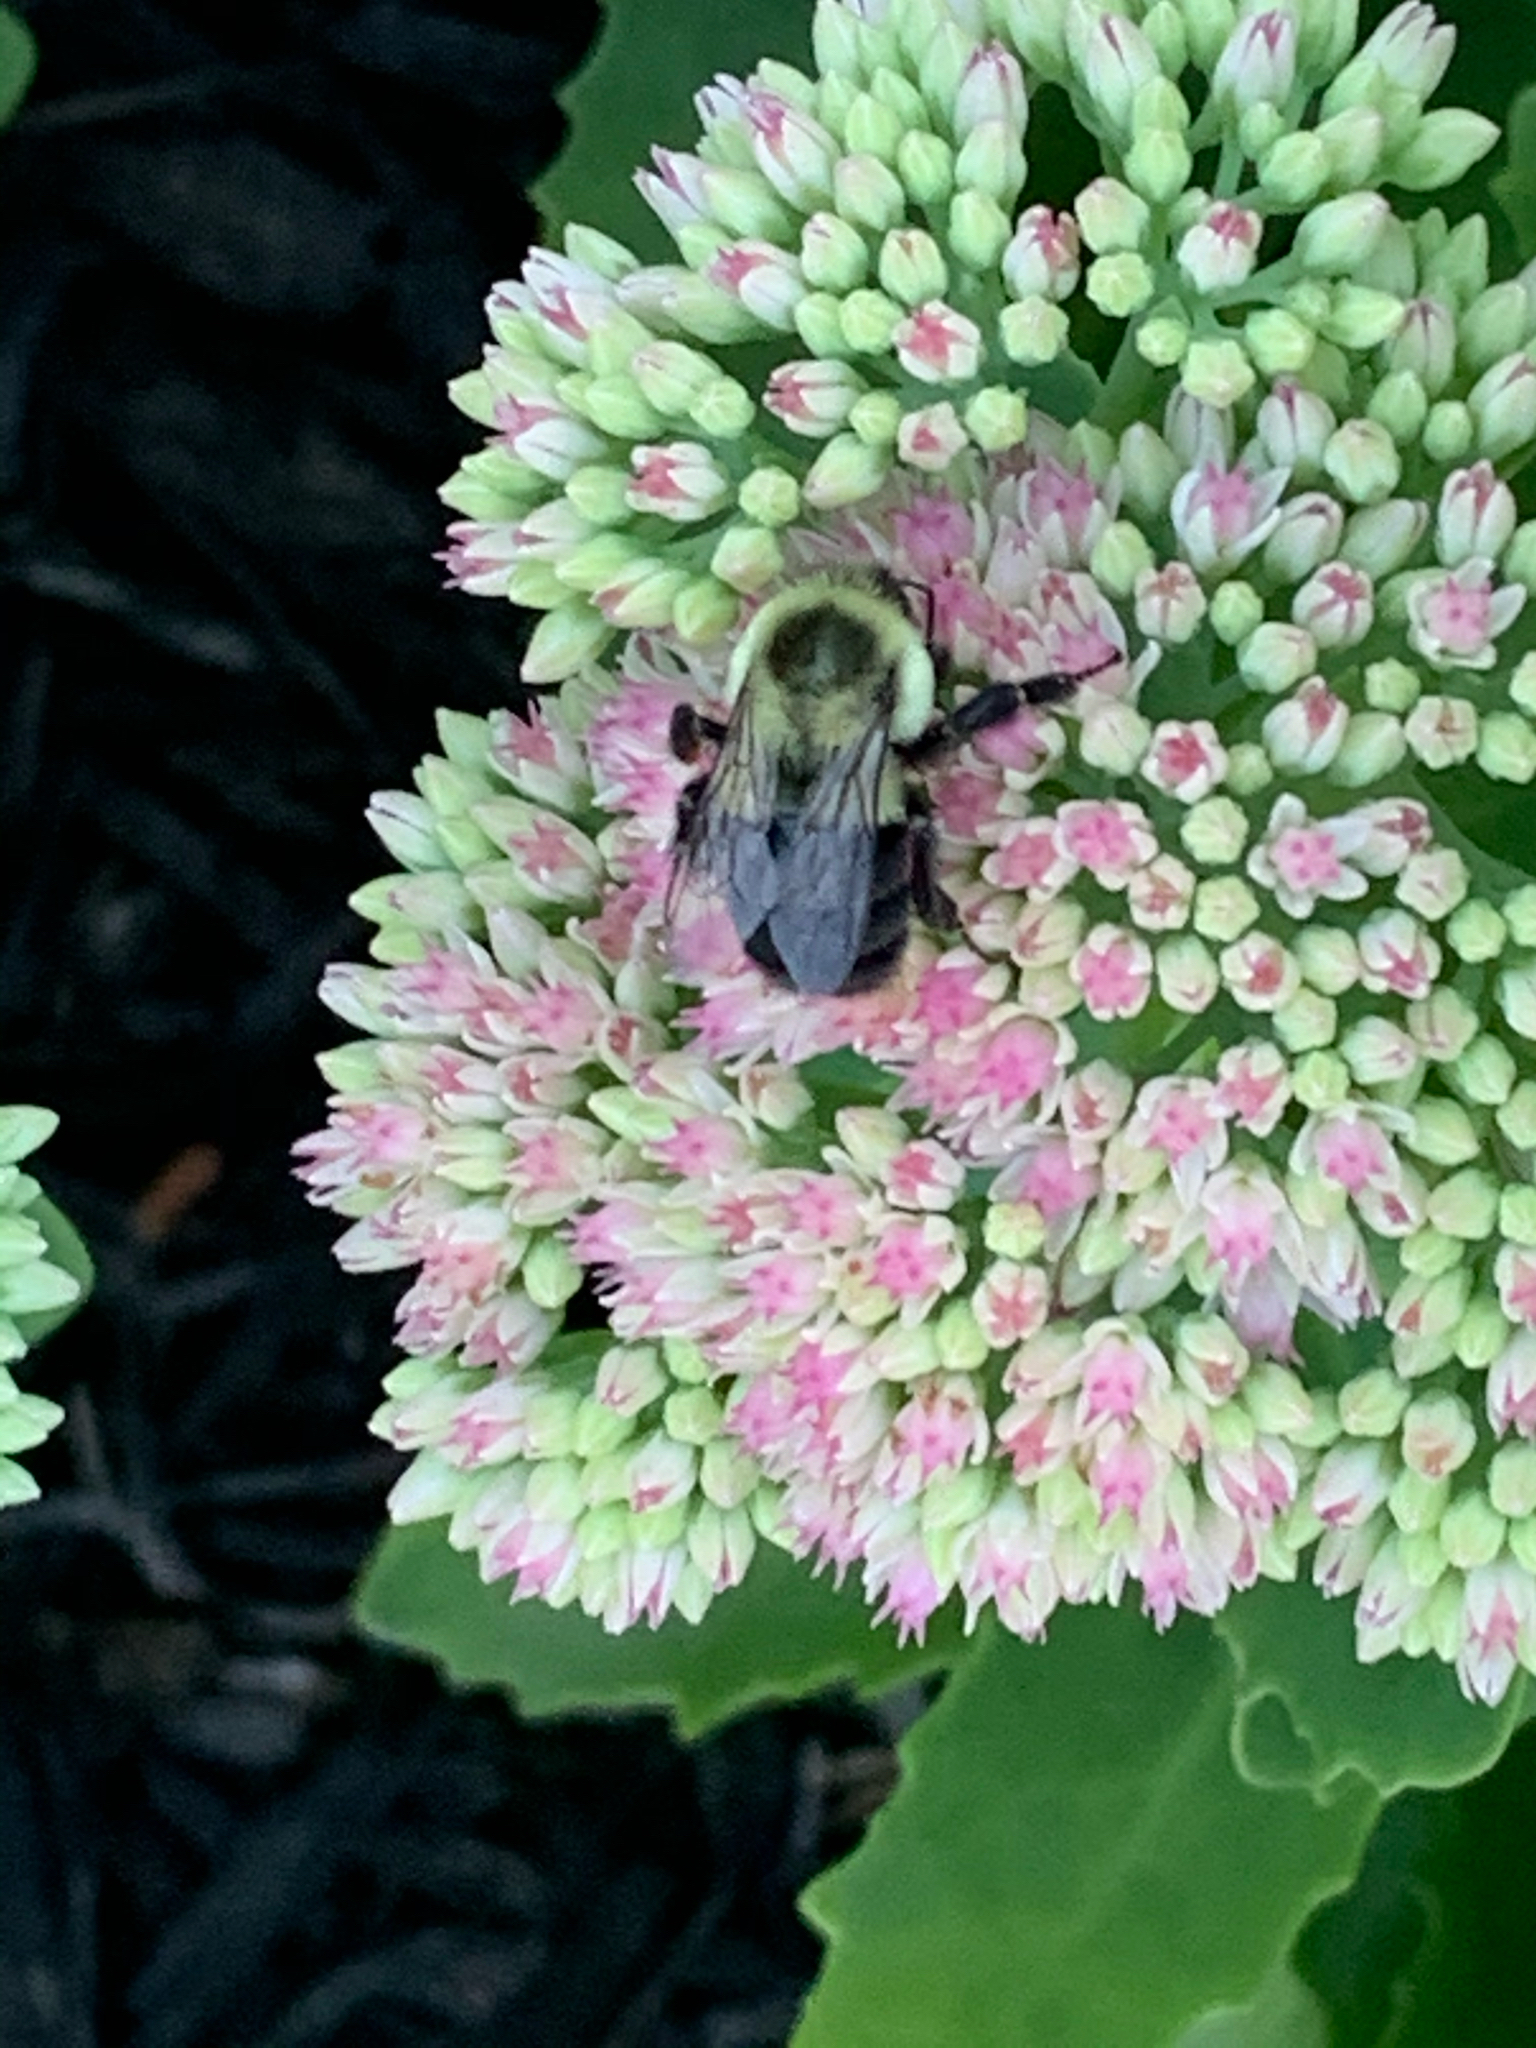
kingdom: Animalia
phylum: Arthropoda
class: Insecta
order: Hymenoptera
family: Apidae
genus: Bombus
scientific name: Bombus impatiens
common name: Common eastern bumble bee
